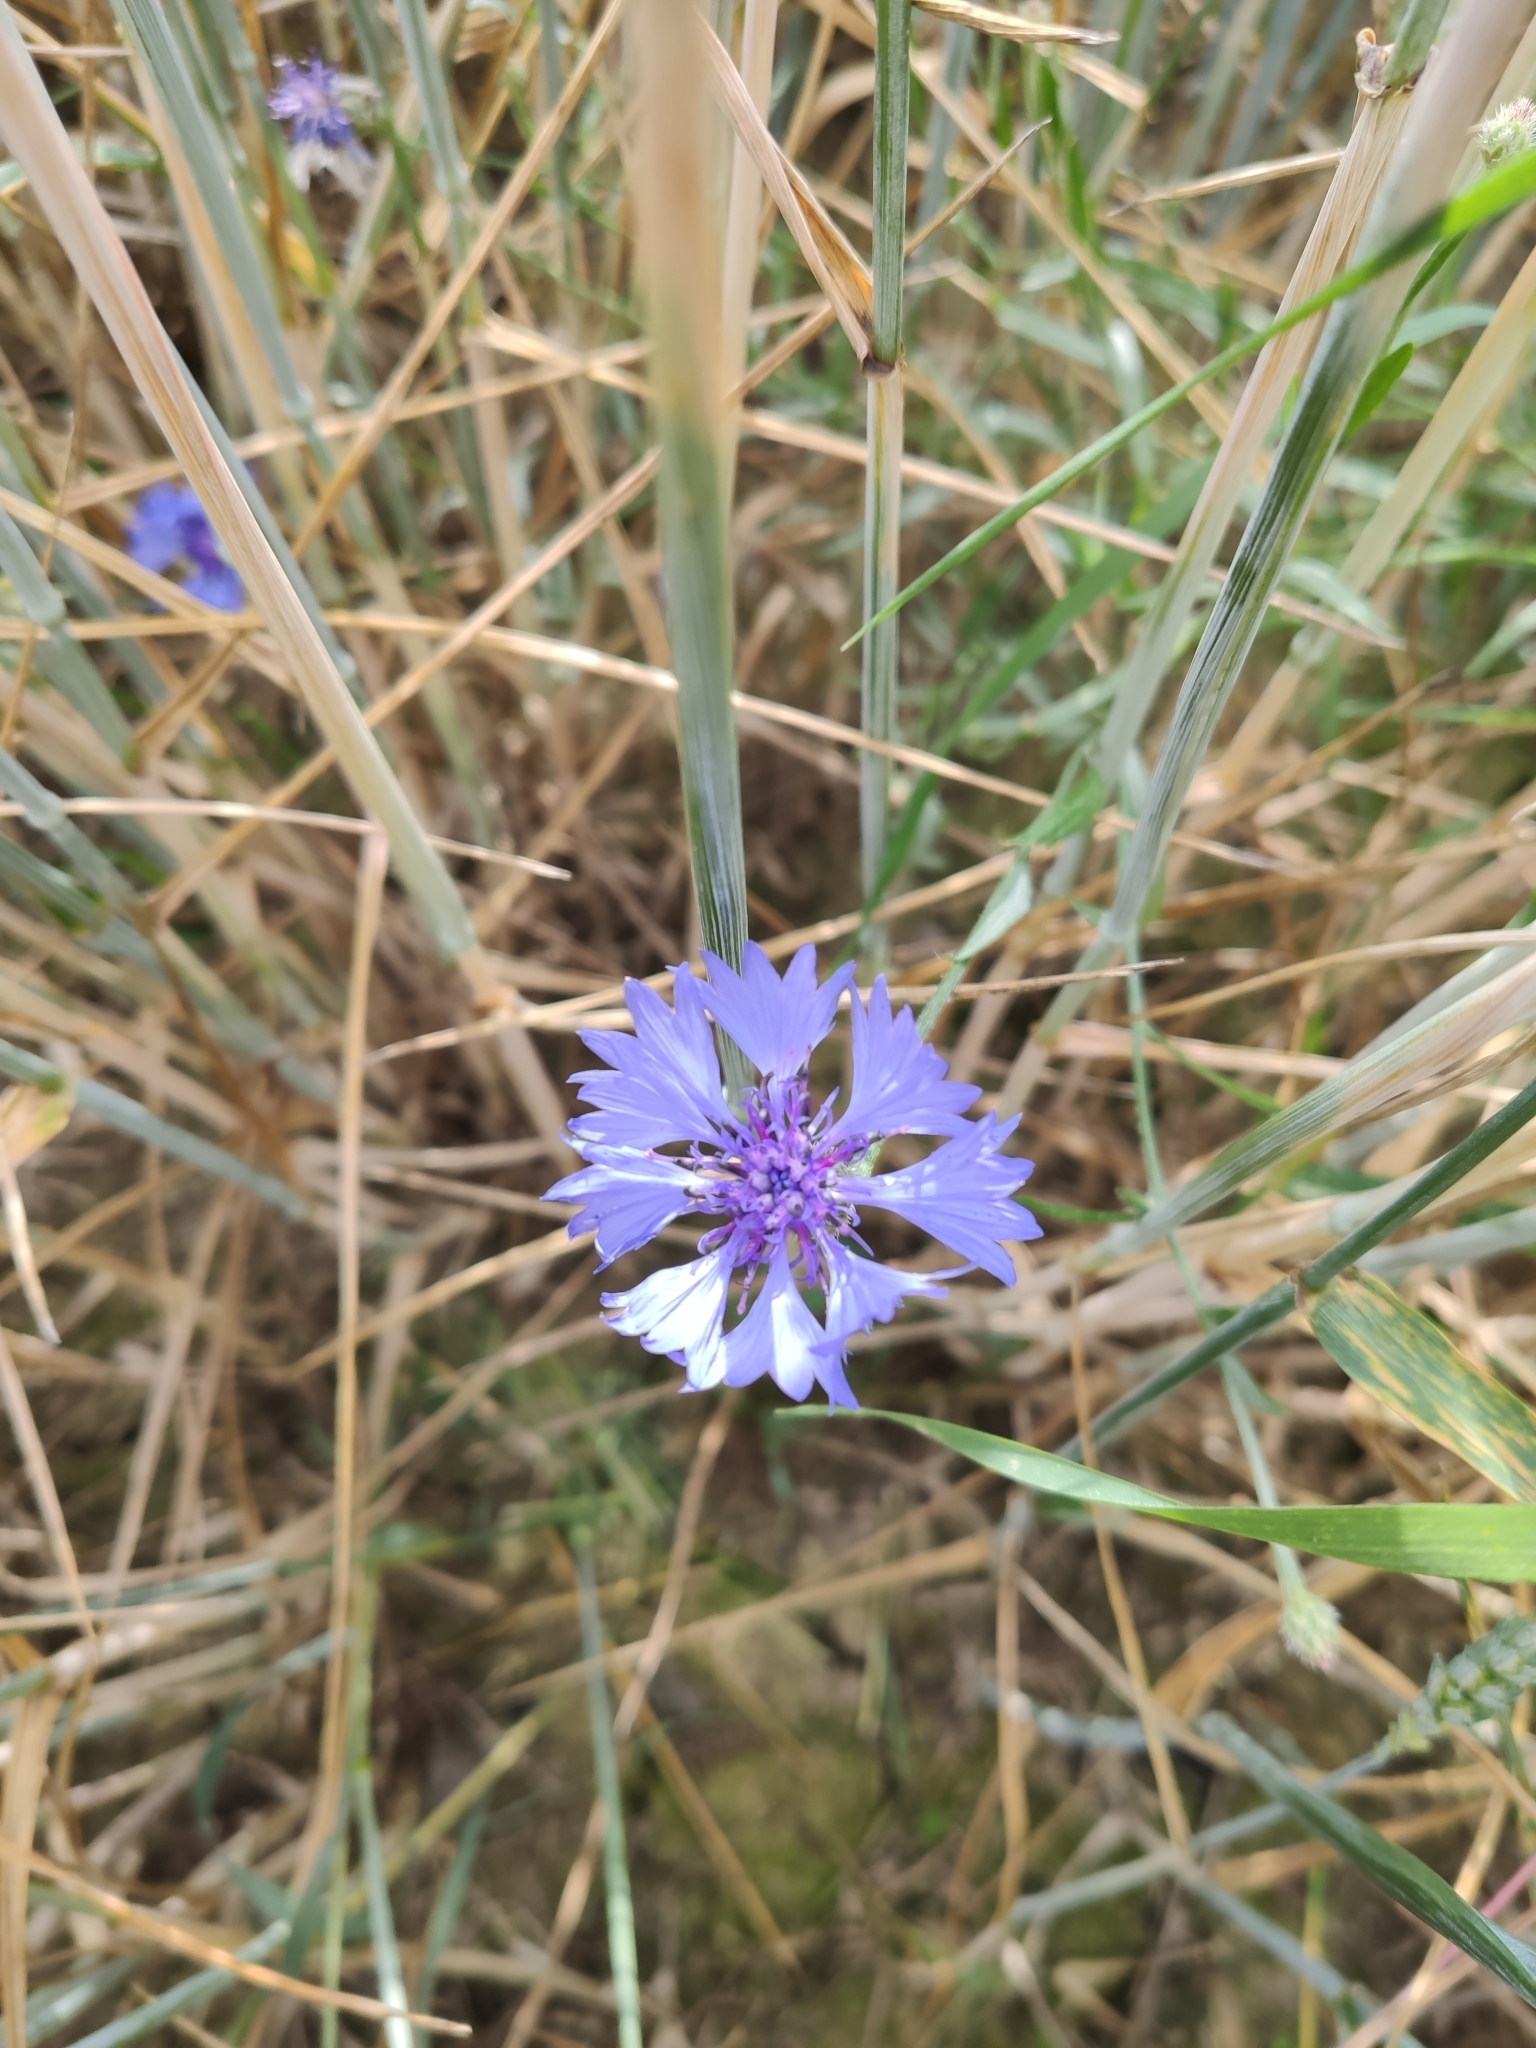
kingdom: Plantae
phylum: Tracheophyta
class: Magnoliopsida
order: Asterales
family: Asteraceae
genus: Centaurea
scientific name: Centaurea cyanus
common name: Cornflower
